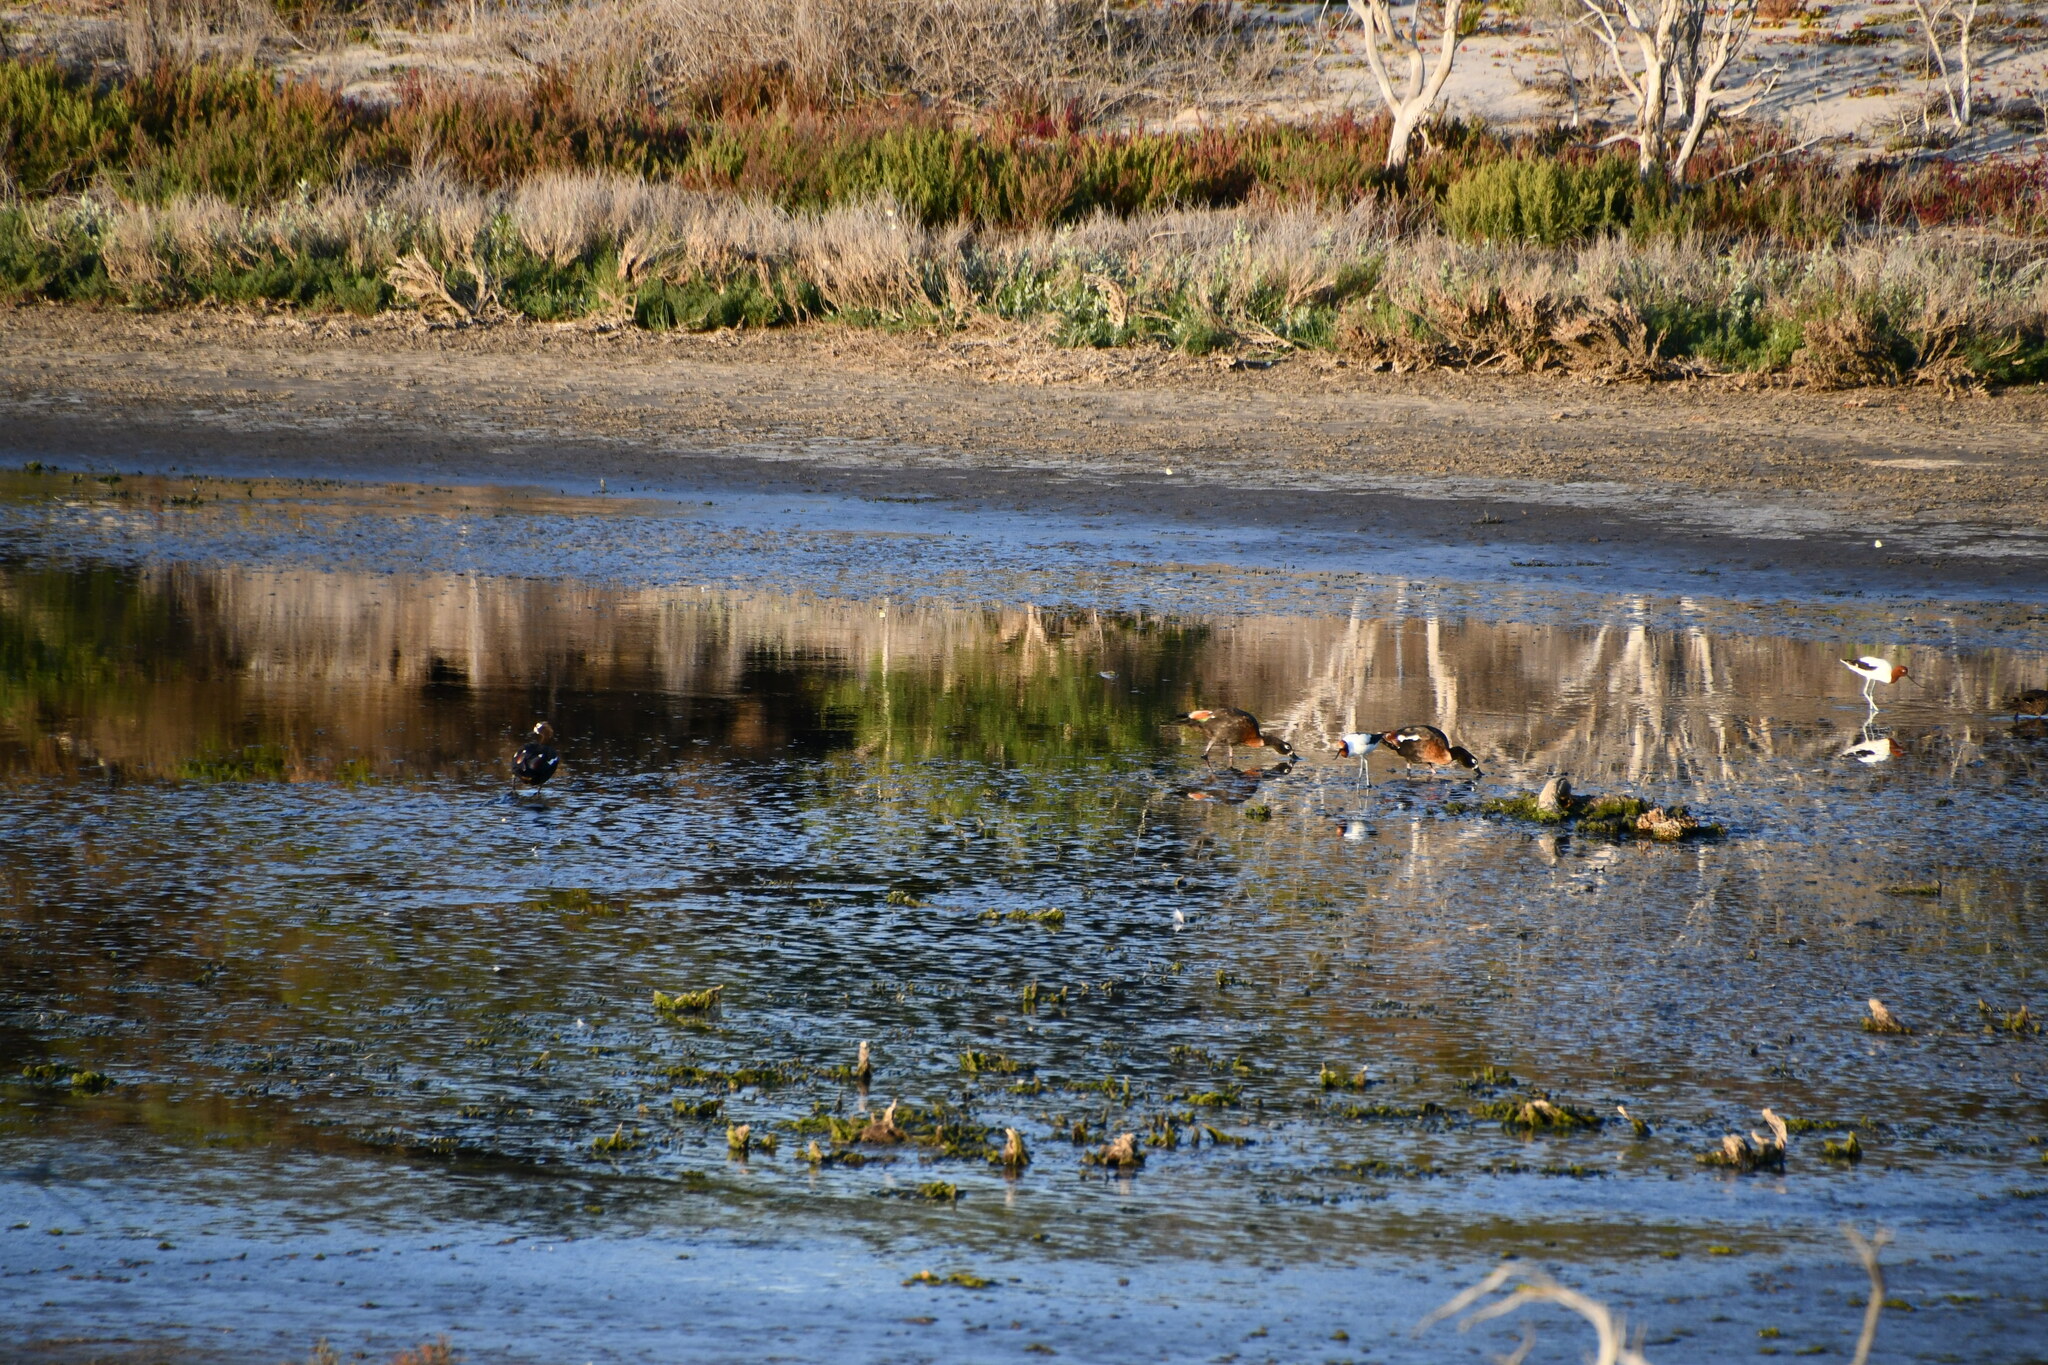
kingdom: Animalia
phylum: Chordata
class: Aves
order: Anseriformes
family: Anatidae
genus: Tadorna
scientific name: Tadorna tadornoides
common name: Australian shelduck
